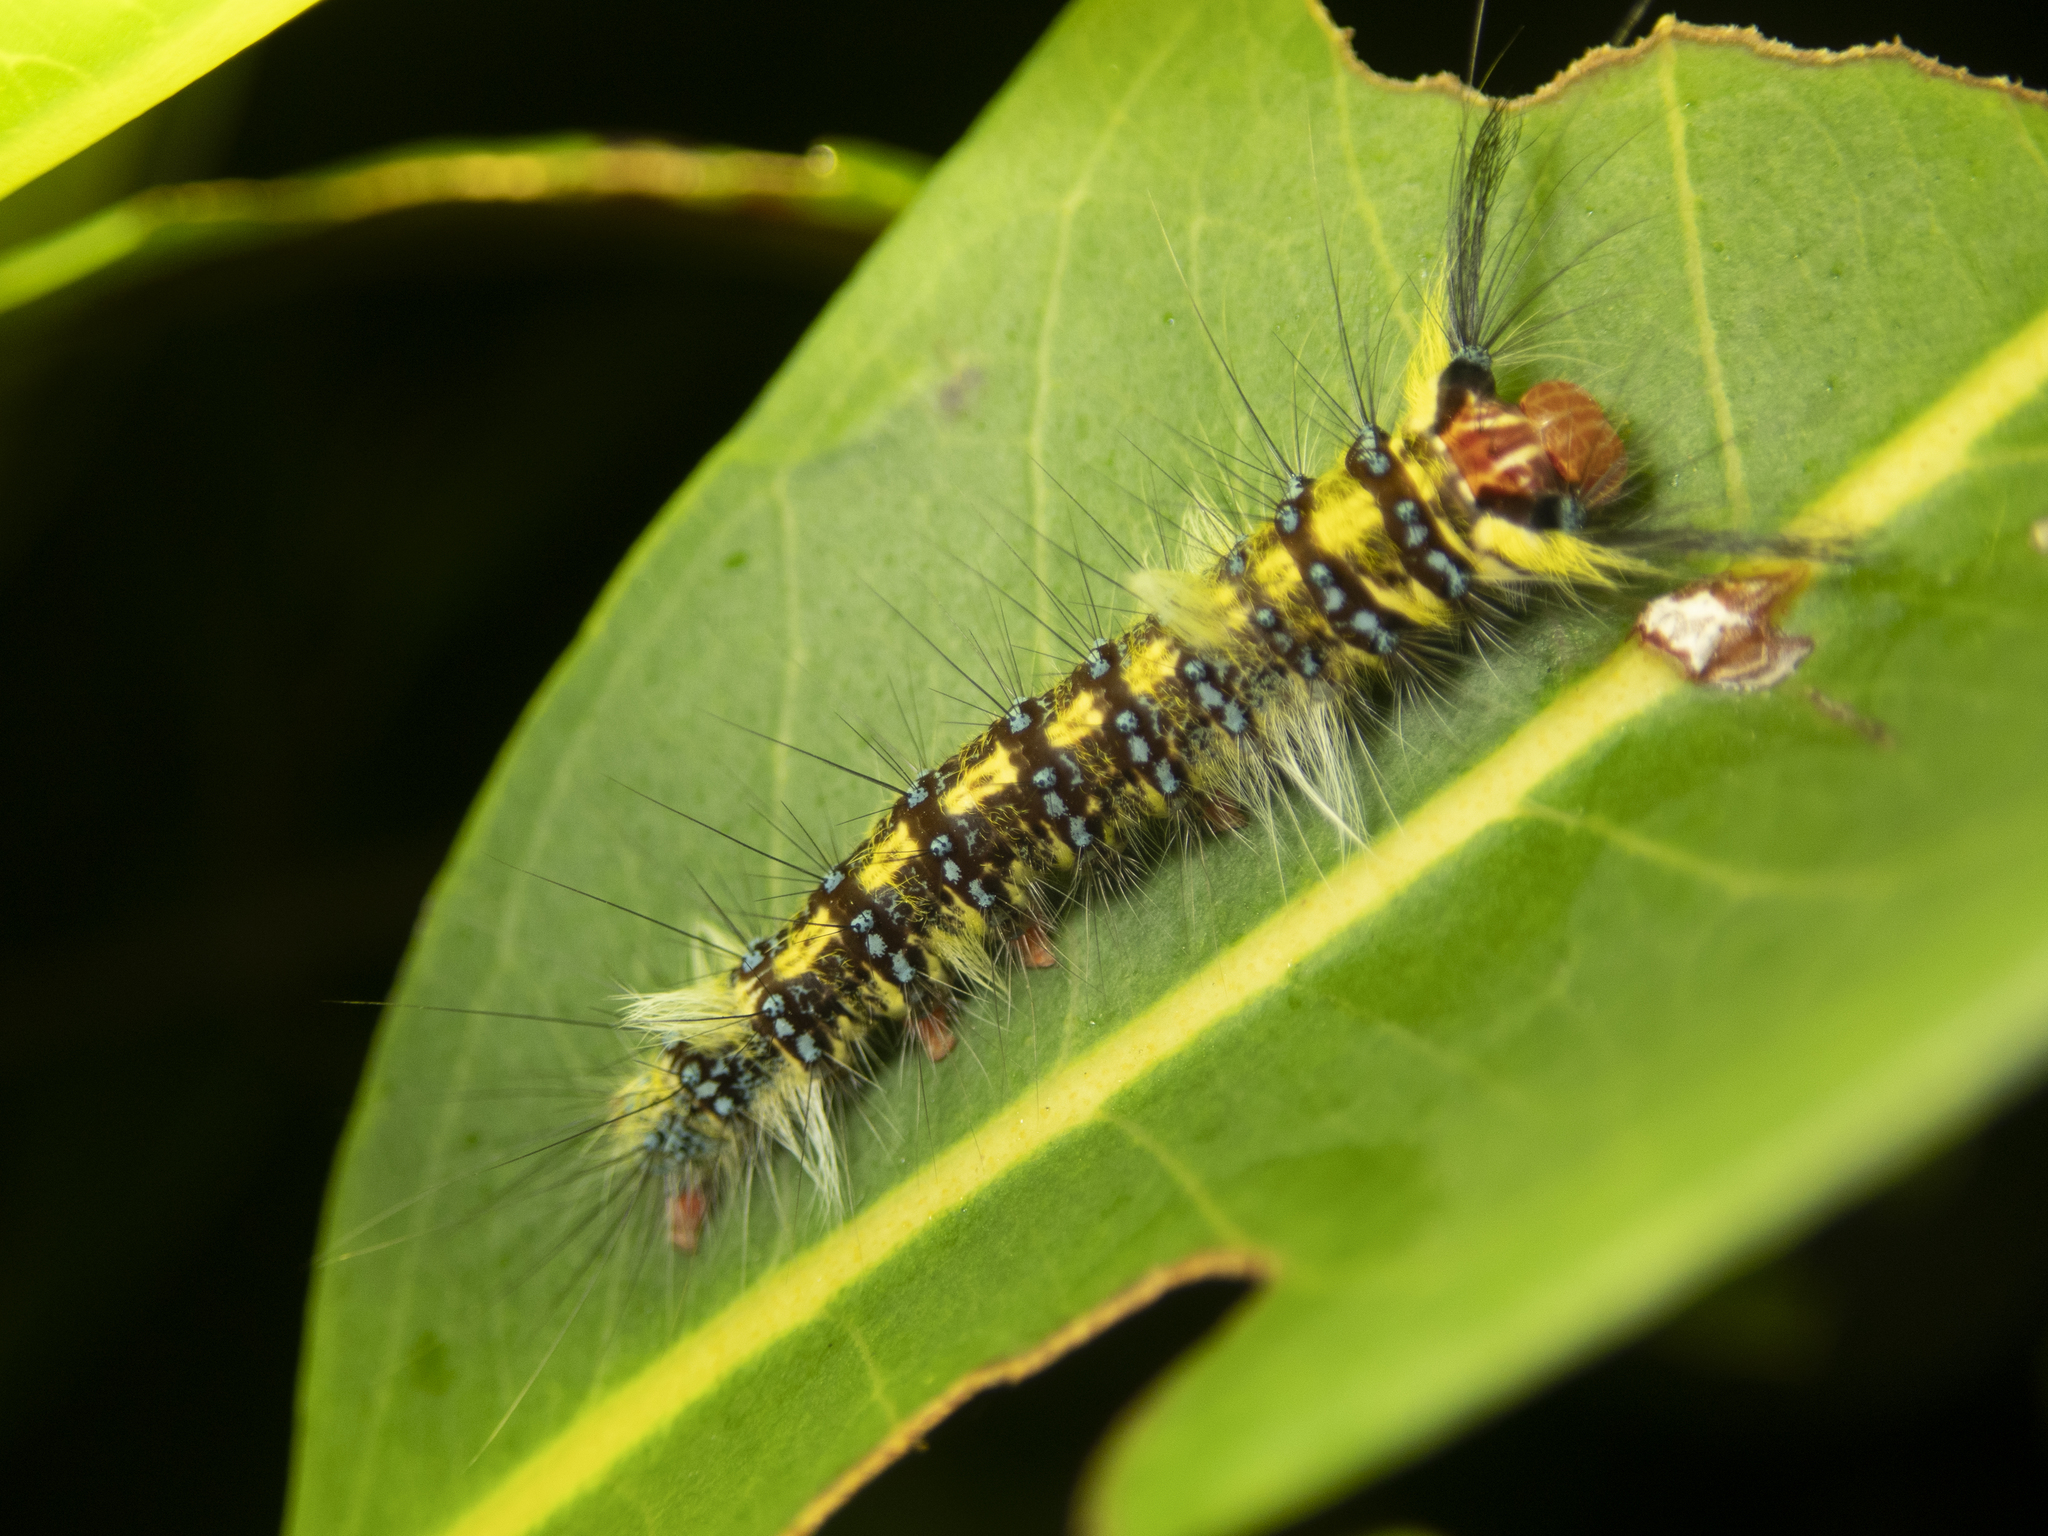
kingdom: Animalia
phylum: Arthropoda
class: Insecta
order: Lepidoptera
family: Lasiocampidae
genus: Trabala
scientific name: Trabala pallida
